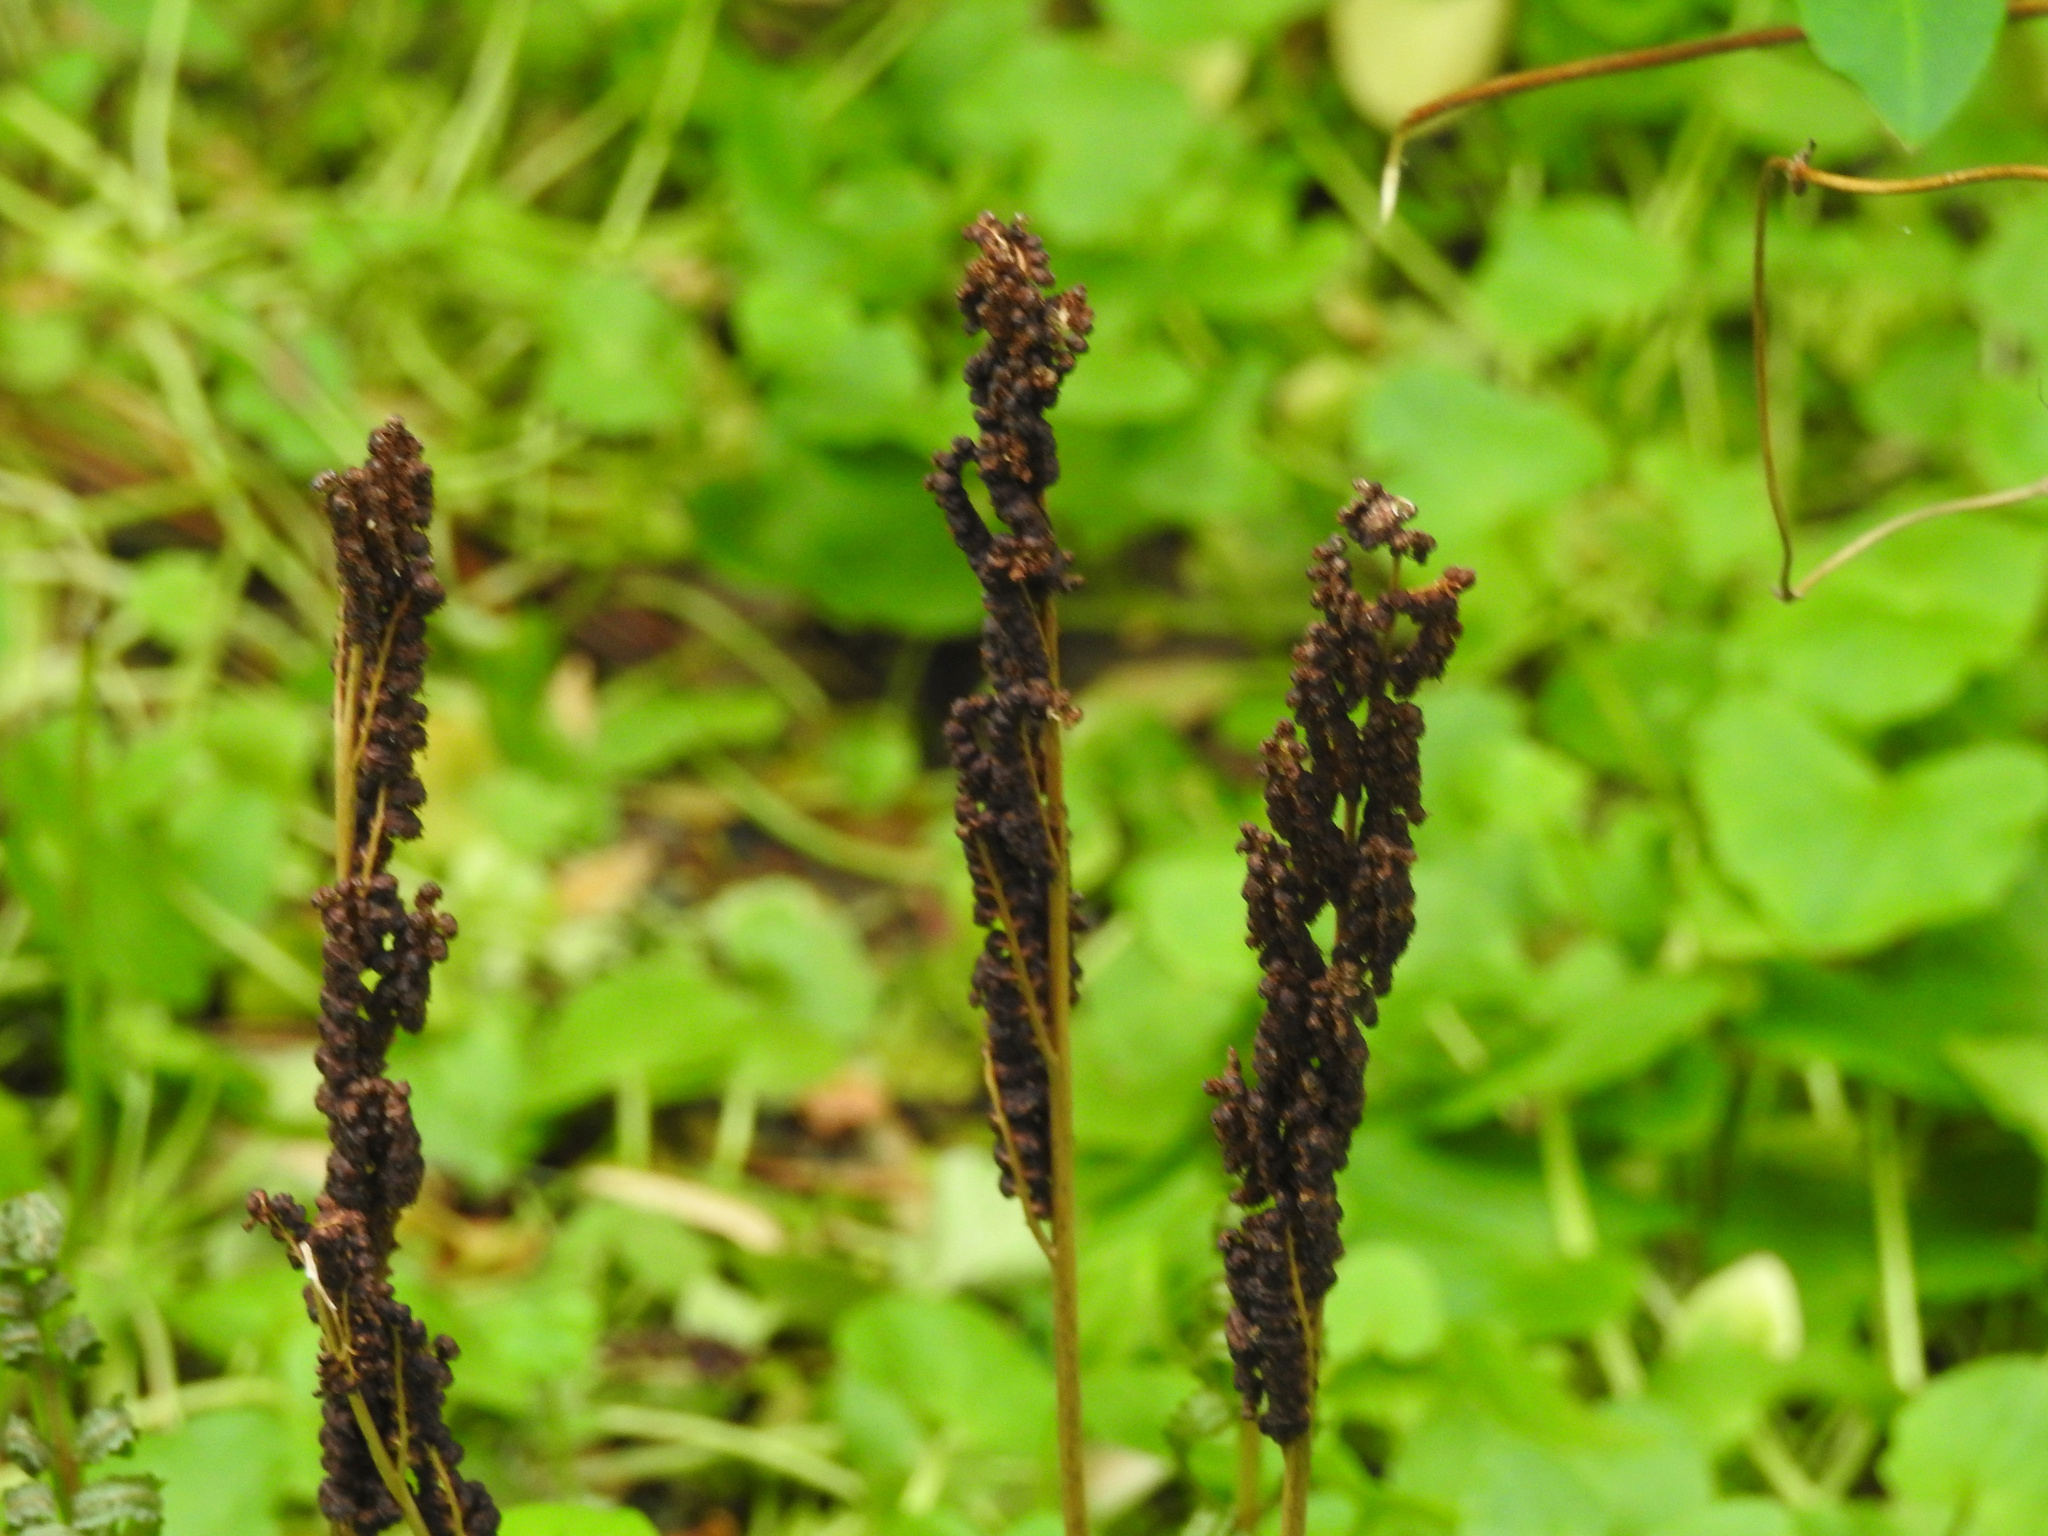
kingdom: Plantae
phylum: Tracheophyta
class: Polypodiopsida
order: Polypodiales
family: Onocleaceae
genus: Onoclea
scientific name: Onoclea sensibilis
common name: Sensitive fern
